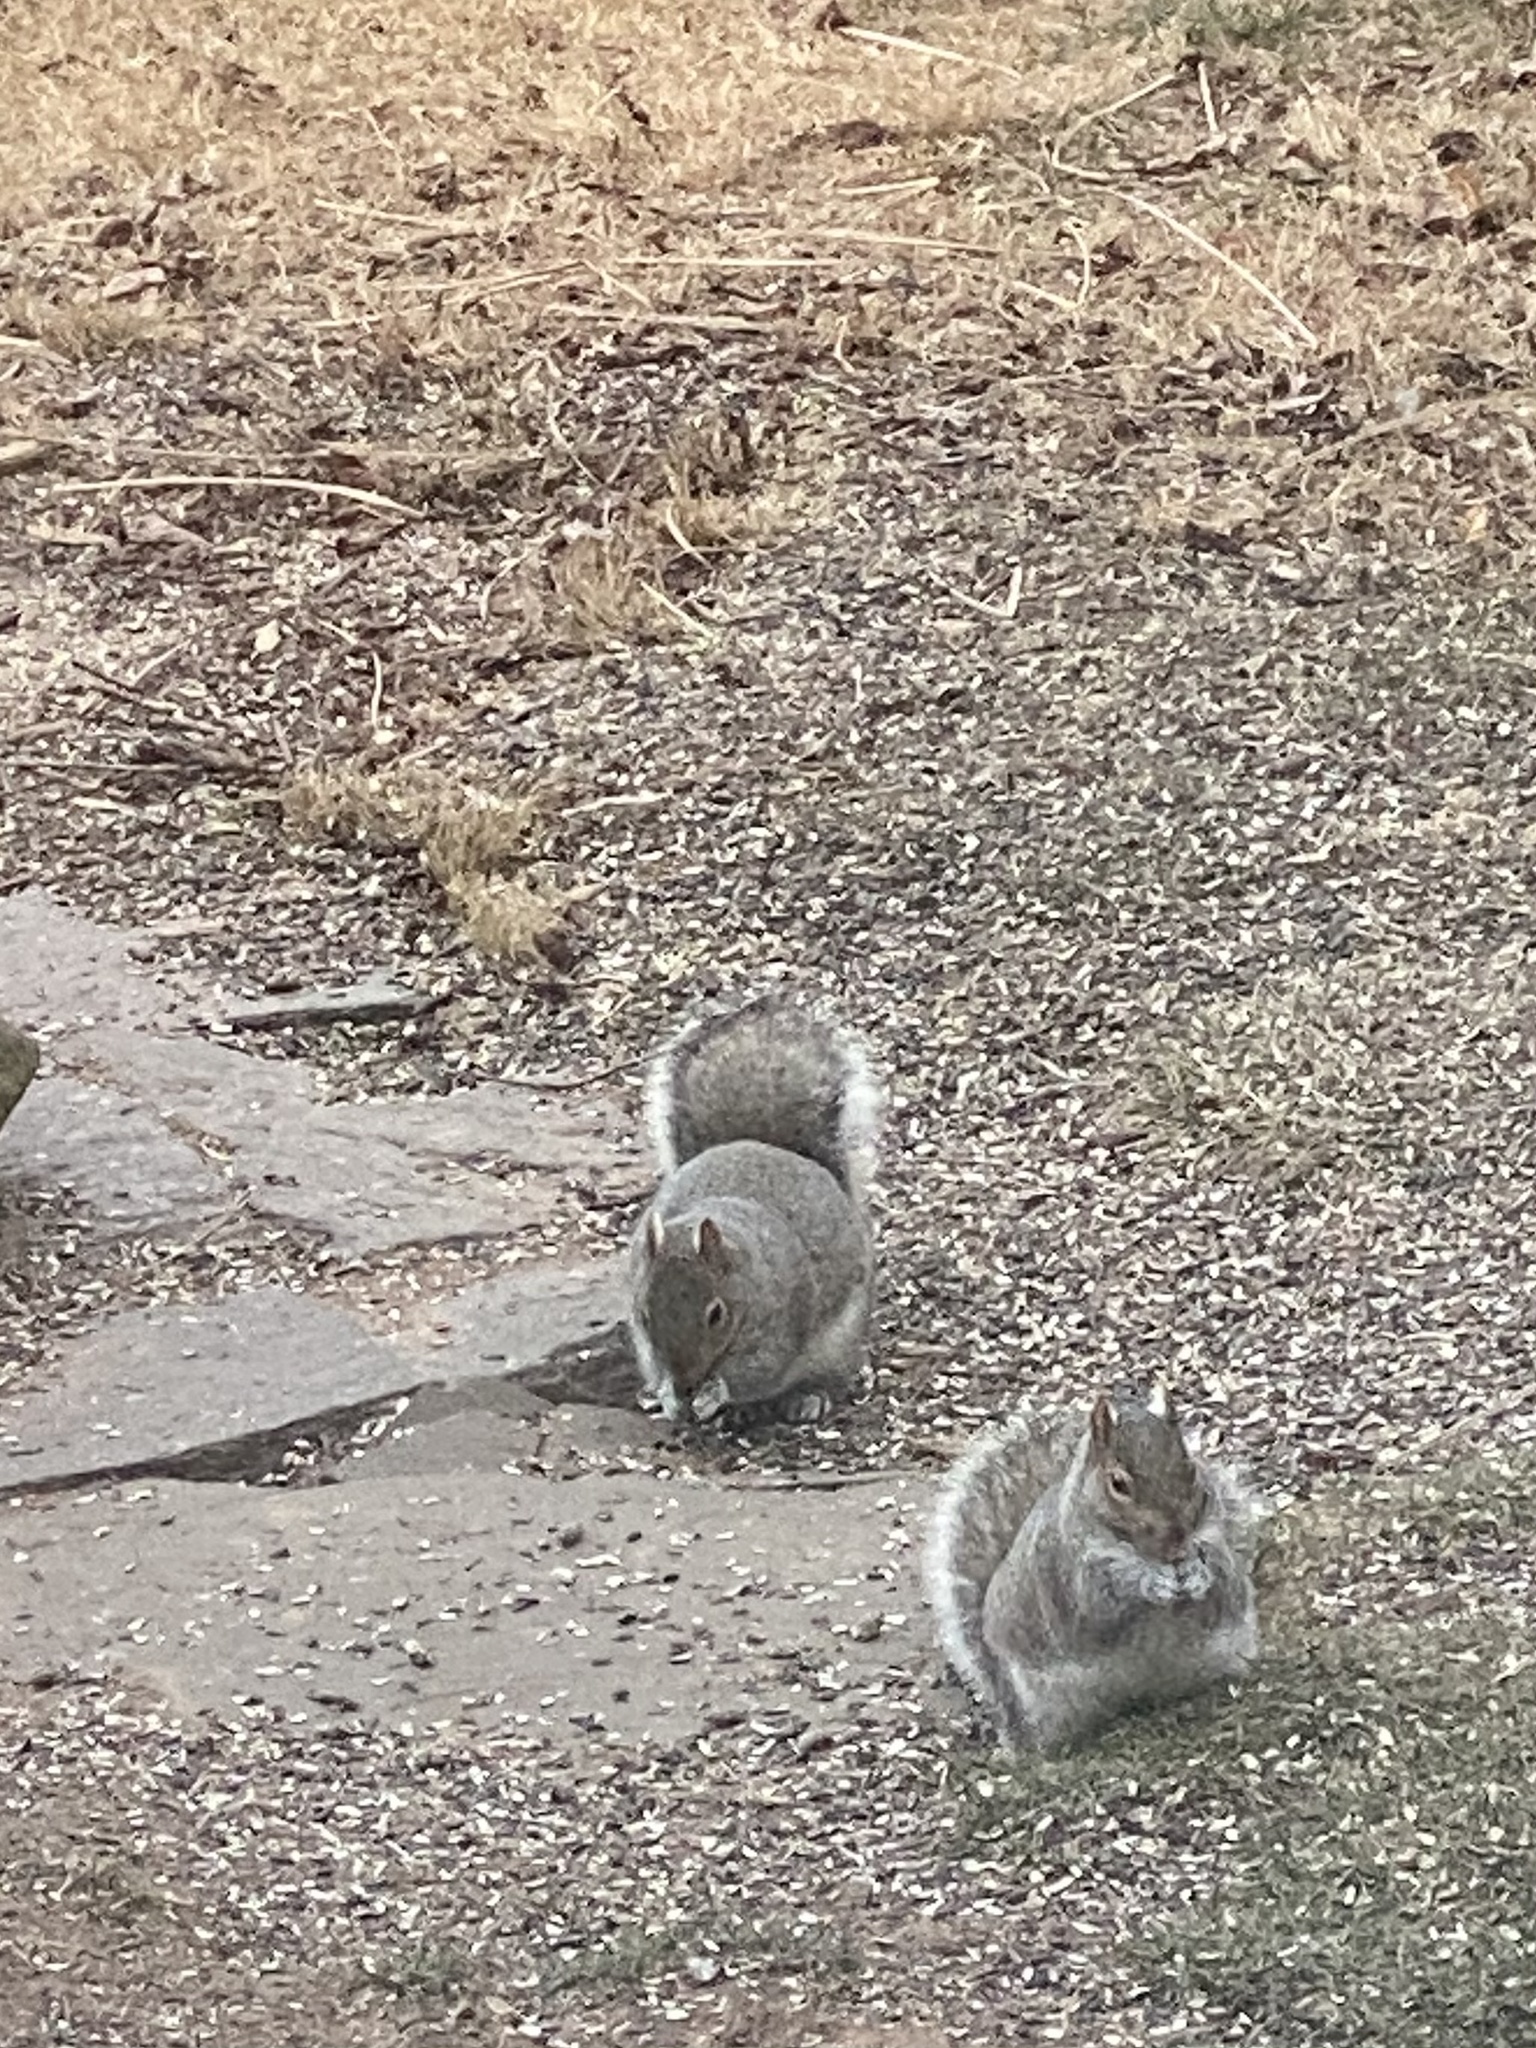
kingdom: Animalia
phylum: Chordata
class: Mammalia
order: Rodentia
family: Sciuridae
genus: Sciurus
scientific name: Sciurus carolinensis
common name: Eastern gray squirrel
